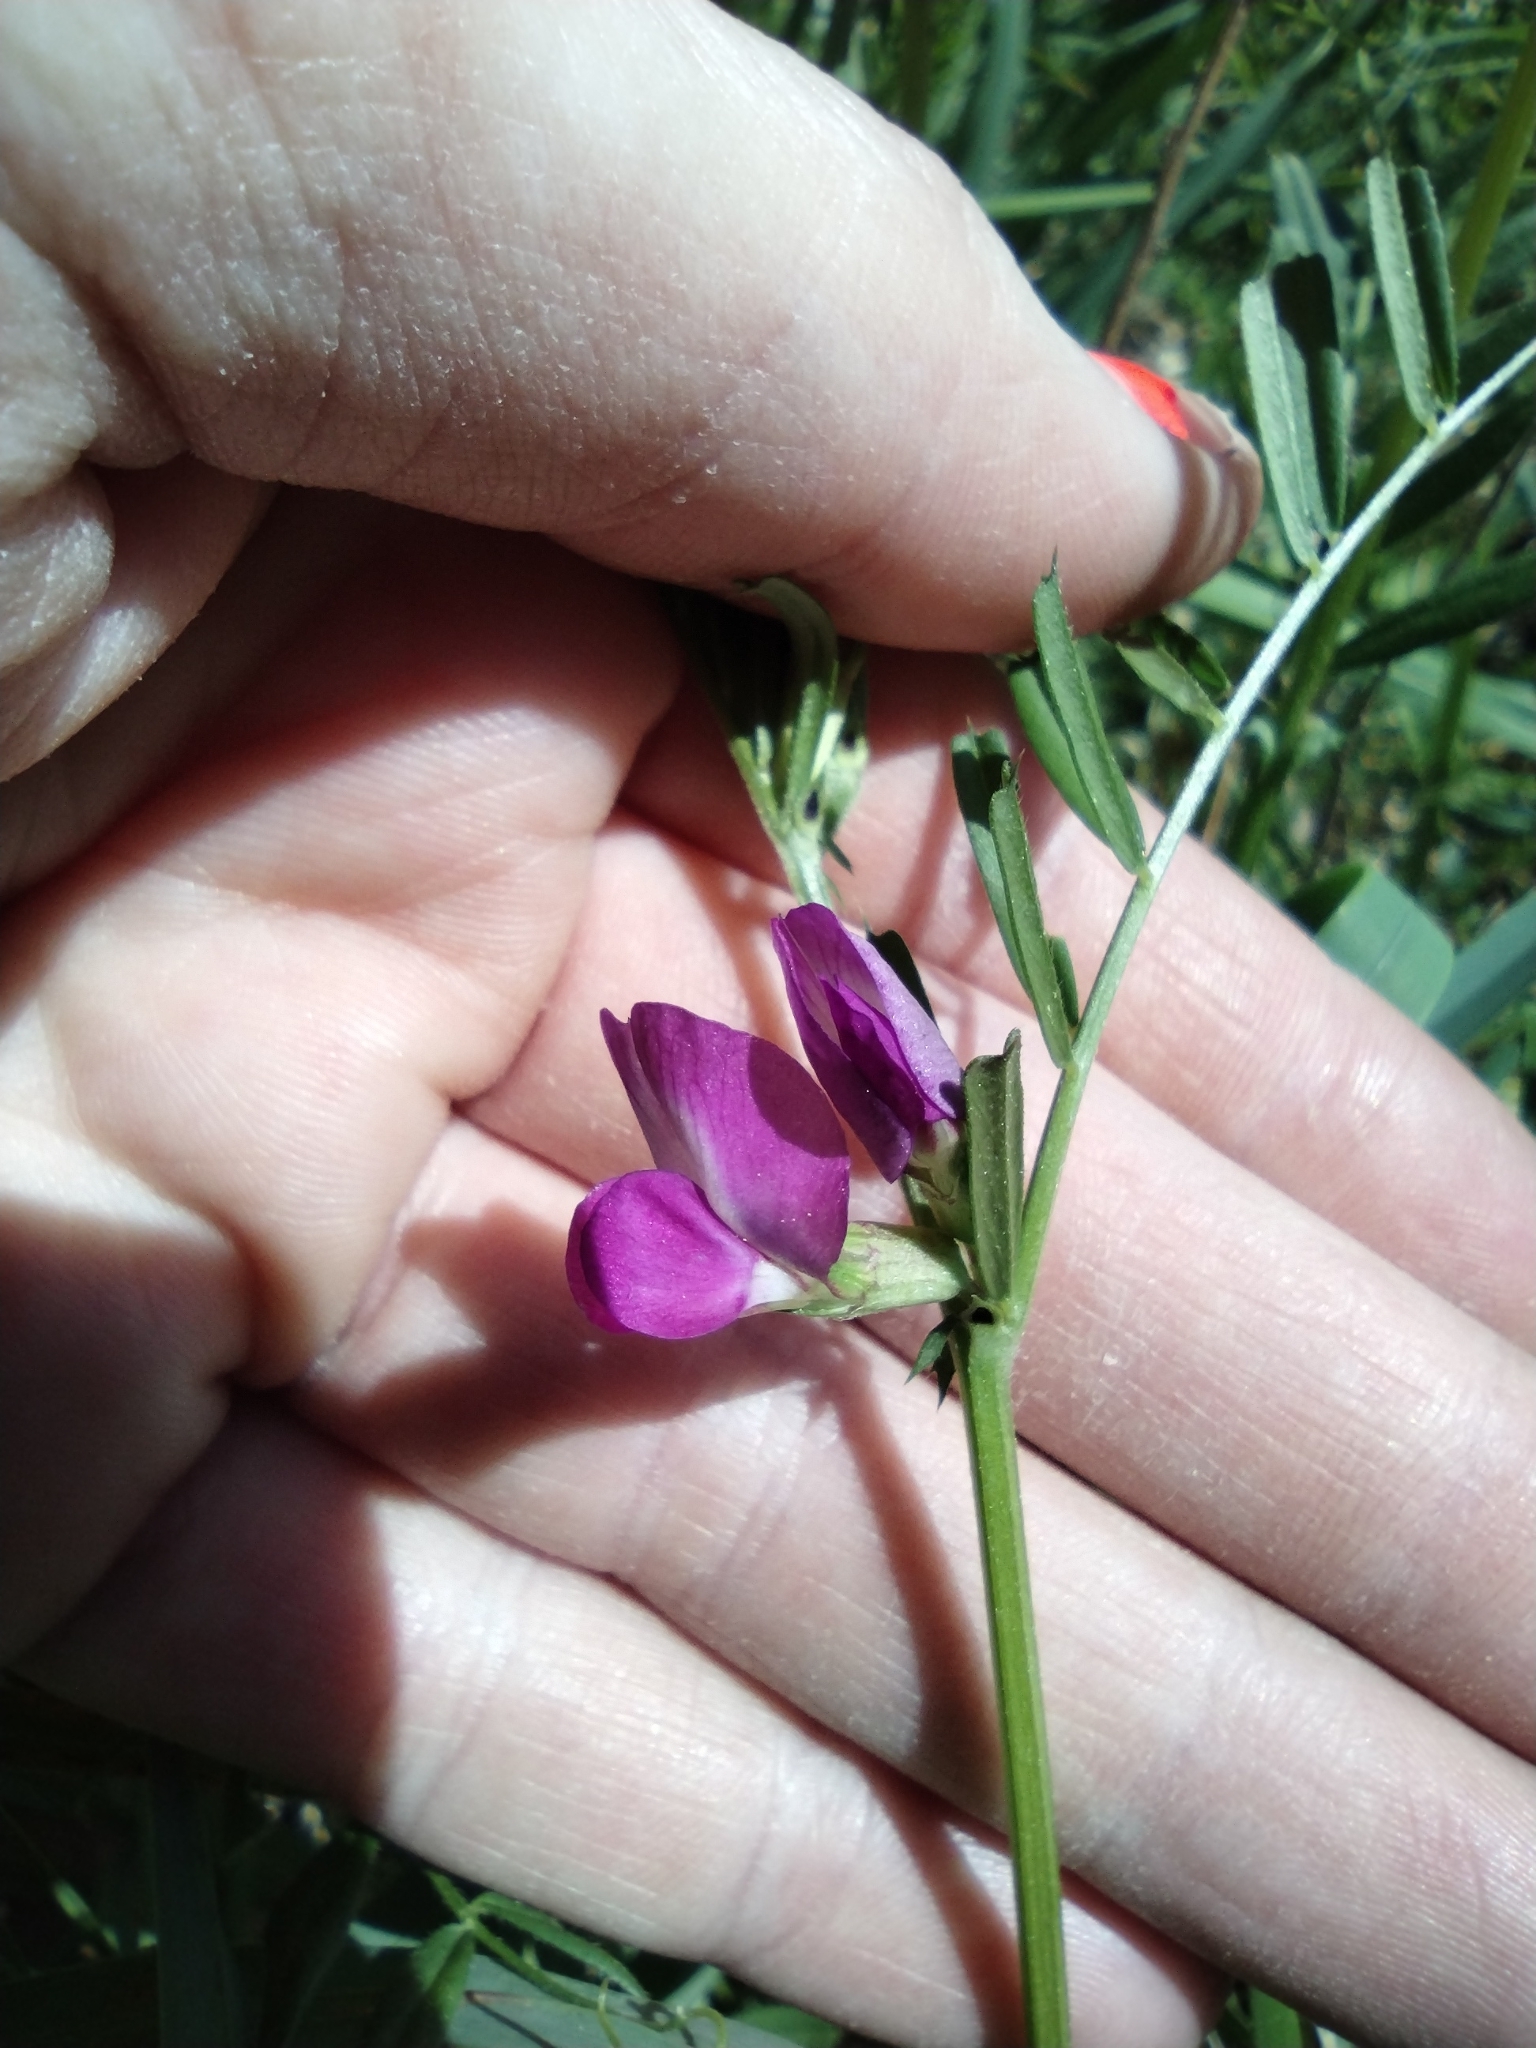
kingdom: Plantae
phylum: Tracheophyta
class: Magnoliopsida
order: Fabales
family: Fabaceae
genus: Vicia
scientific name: Vicia sativa
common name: Garden vetch
